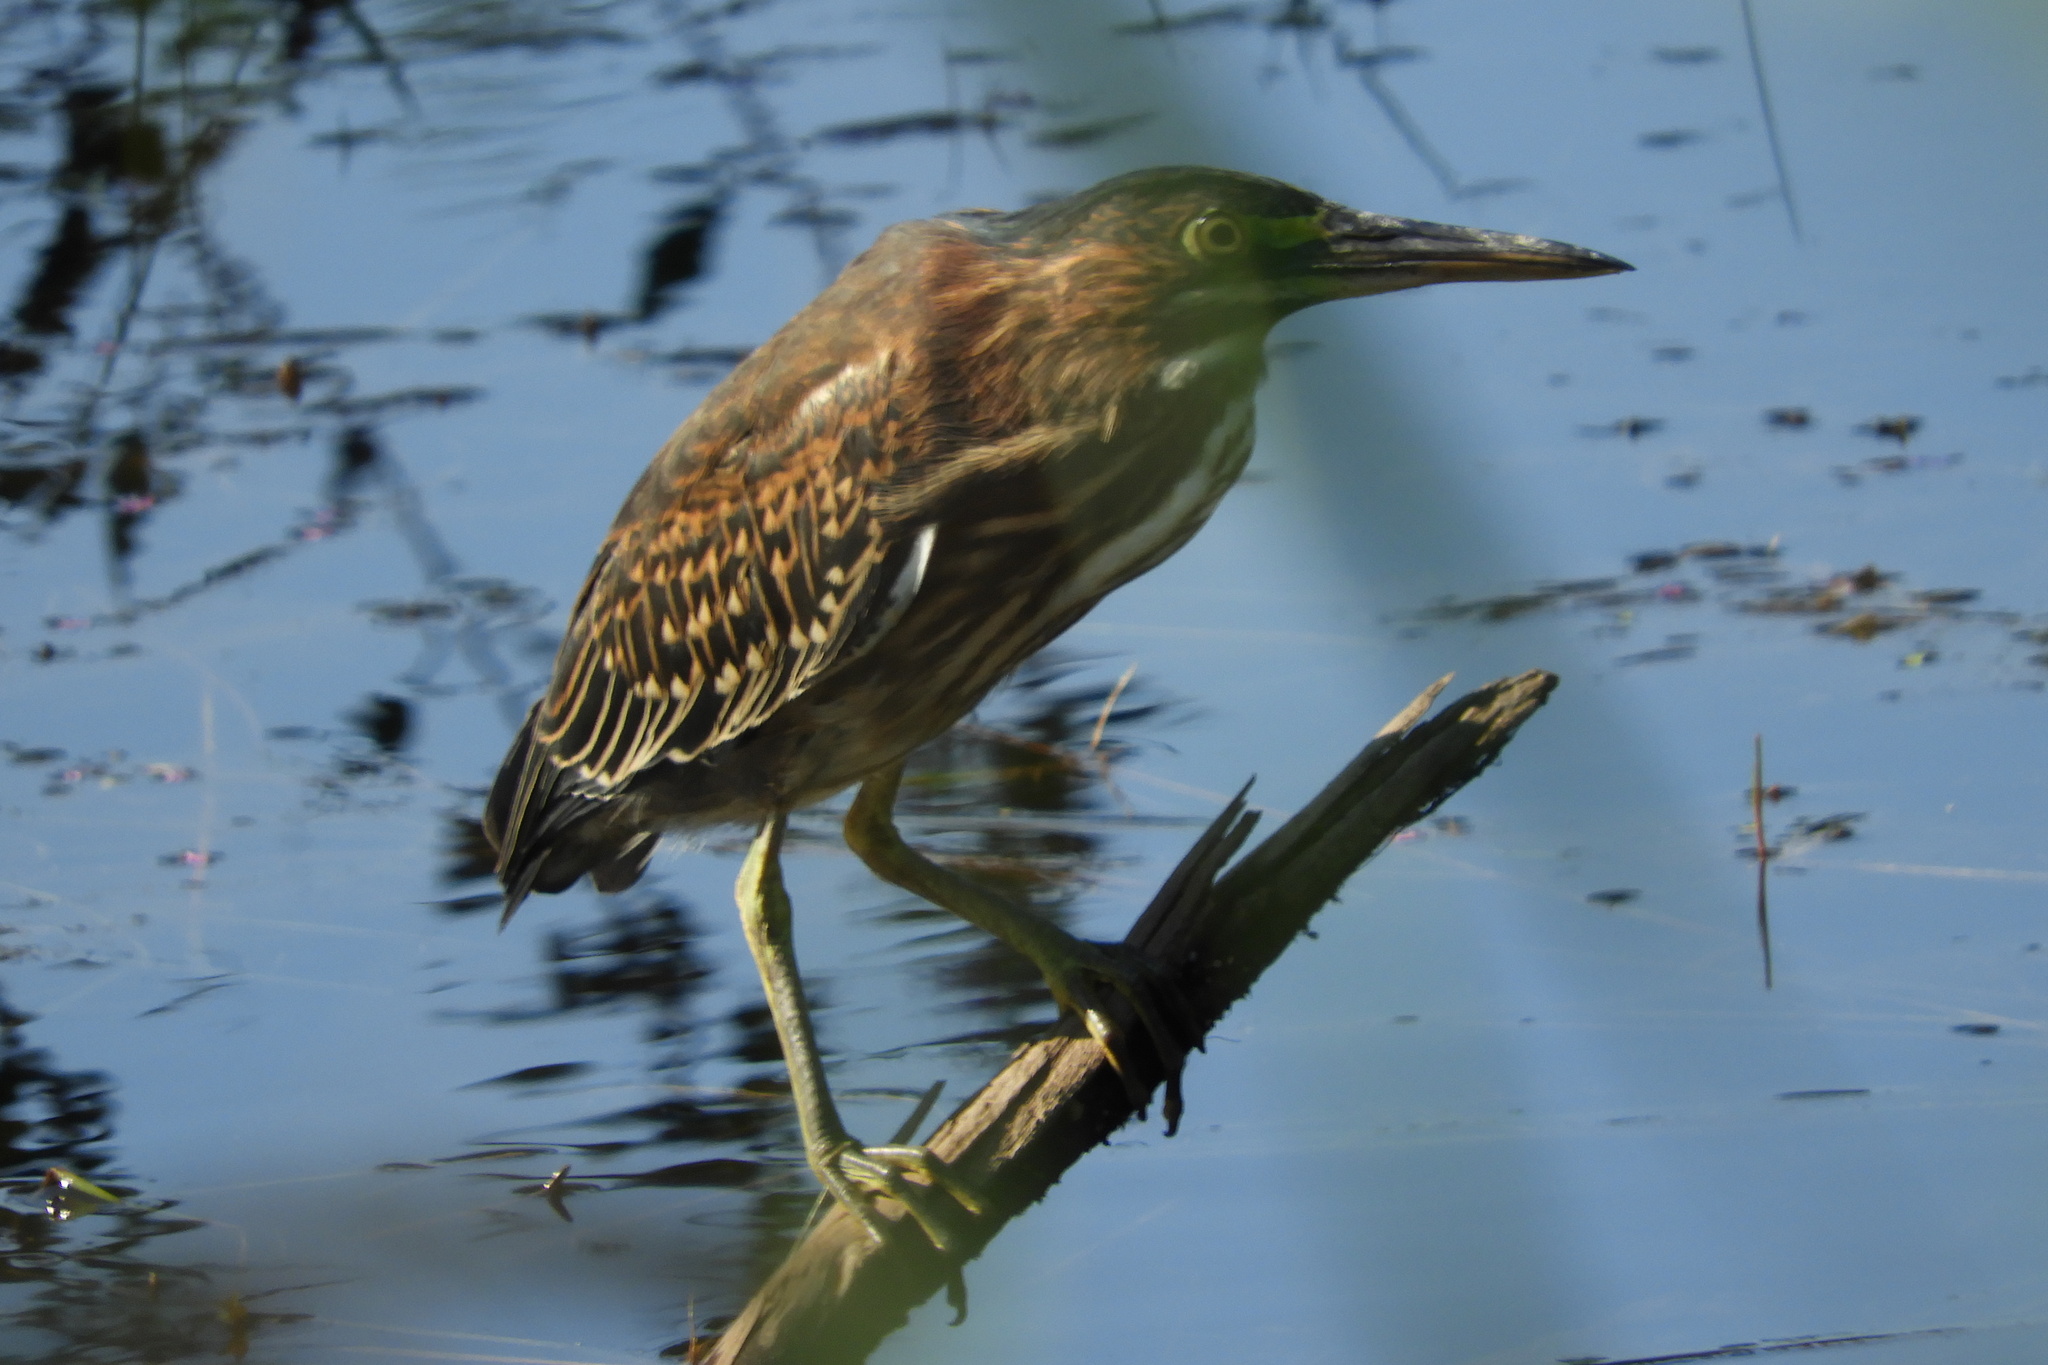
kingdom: Animalia
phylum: Chordata
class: Aves
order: Pelecaniformes
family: Ardeidae
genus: Butorides
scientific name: Butorides virescens
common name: Green heron
